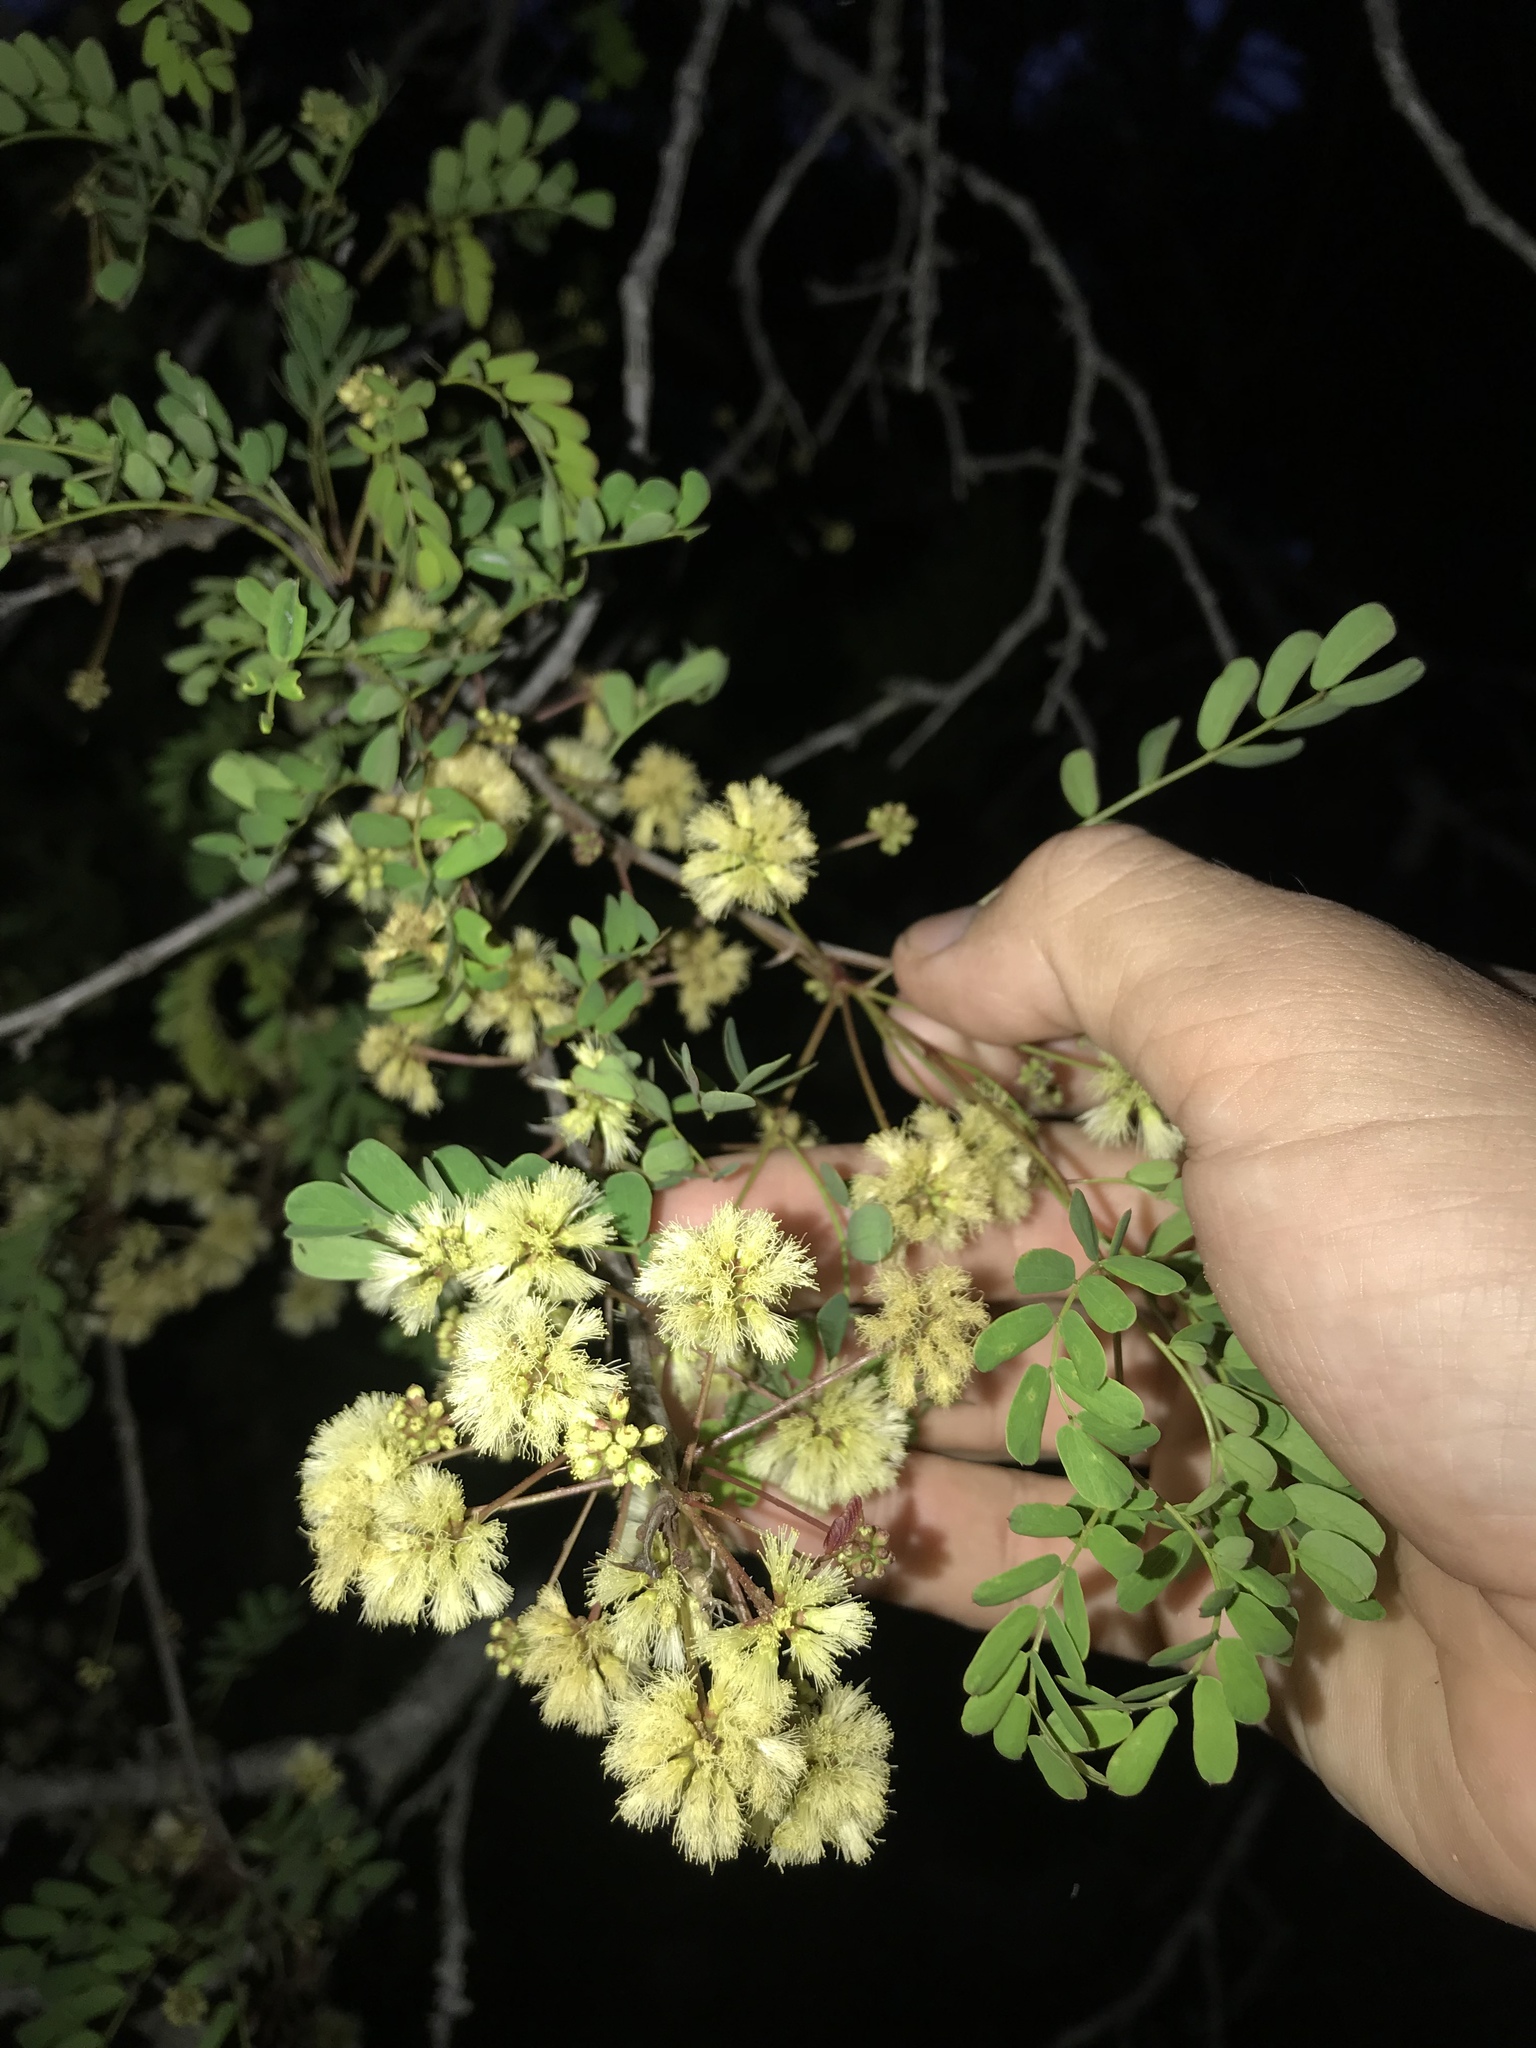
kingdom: Plantae
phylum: Tracheophyta
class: Magnoliopsida
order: Fabales
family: Fabaceae
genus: Senegalia
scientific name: Senegalia roemeriana
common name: Roemer's acacia
